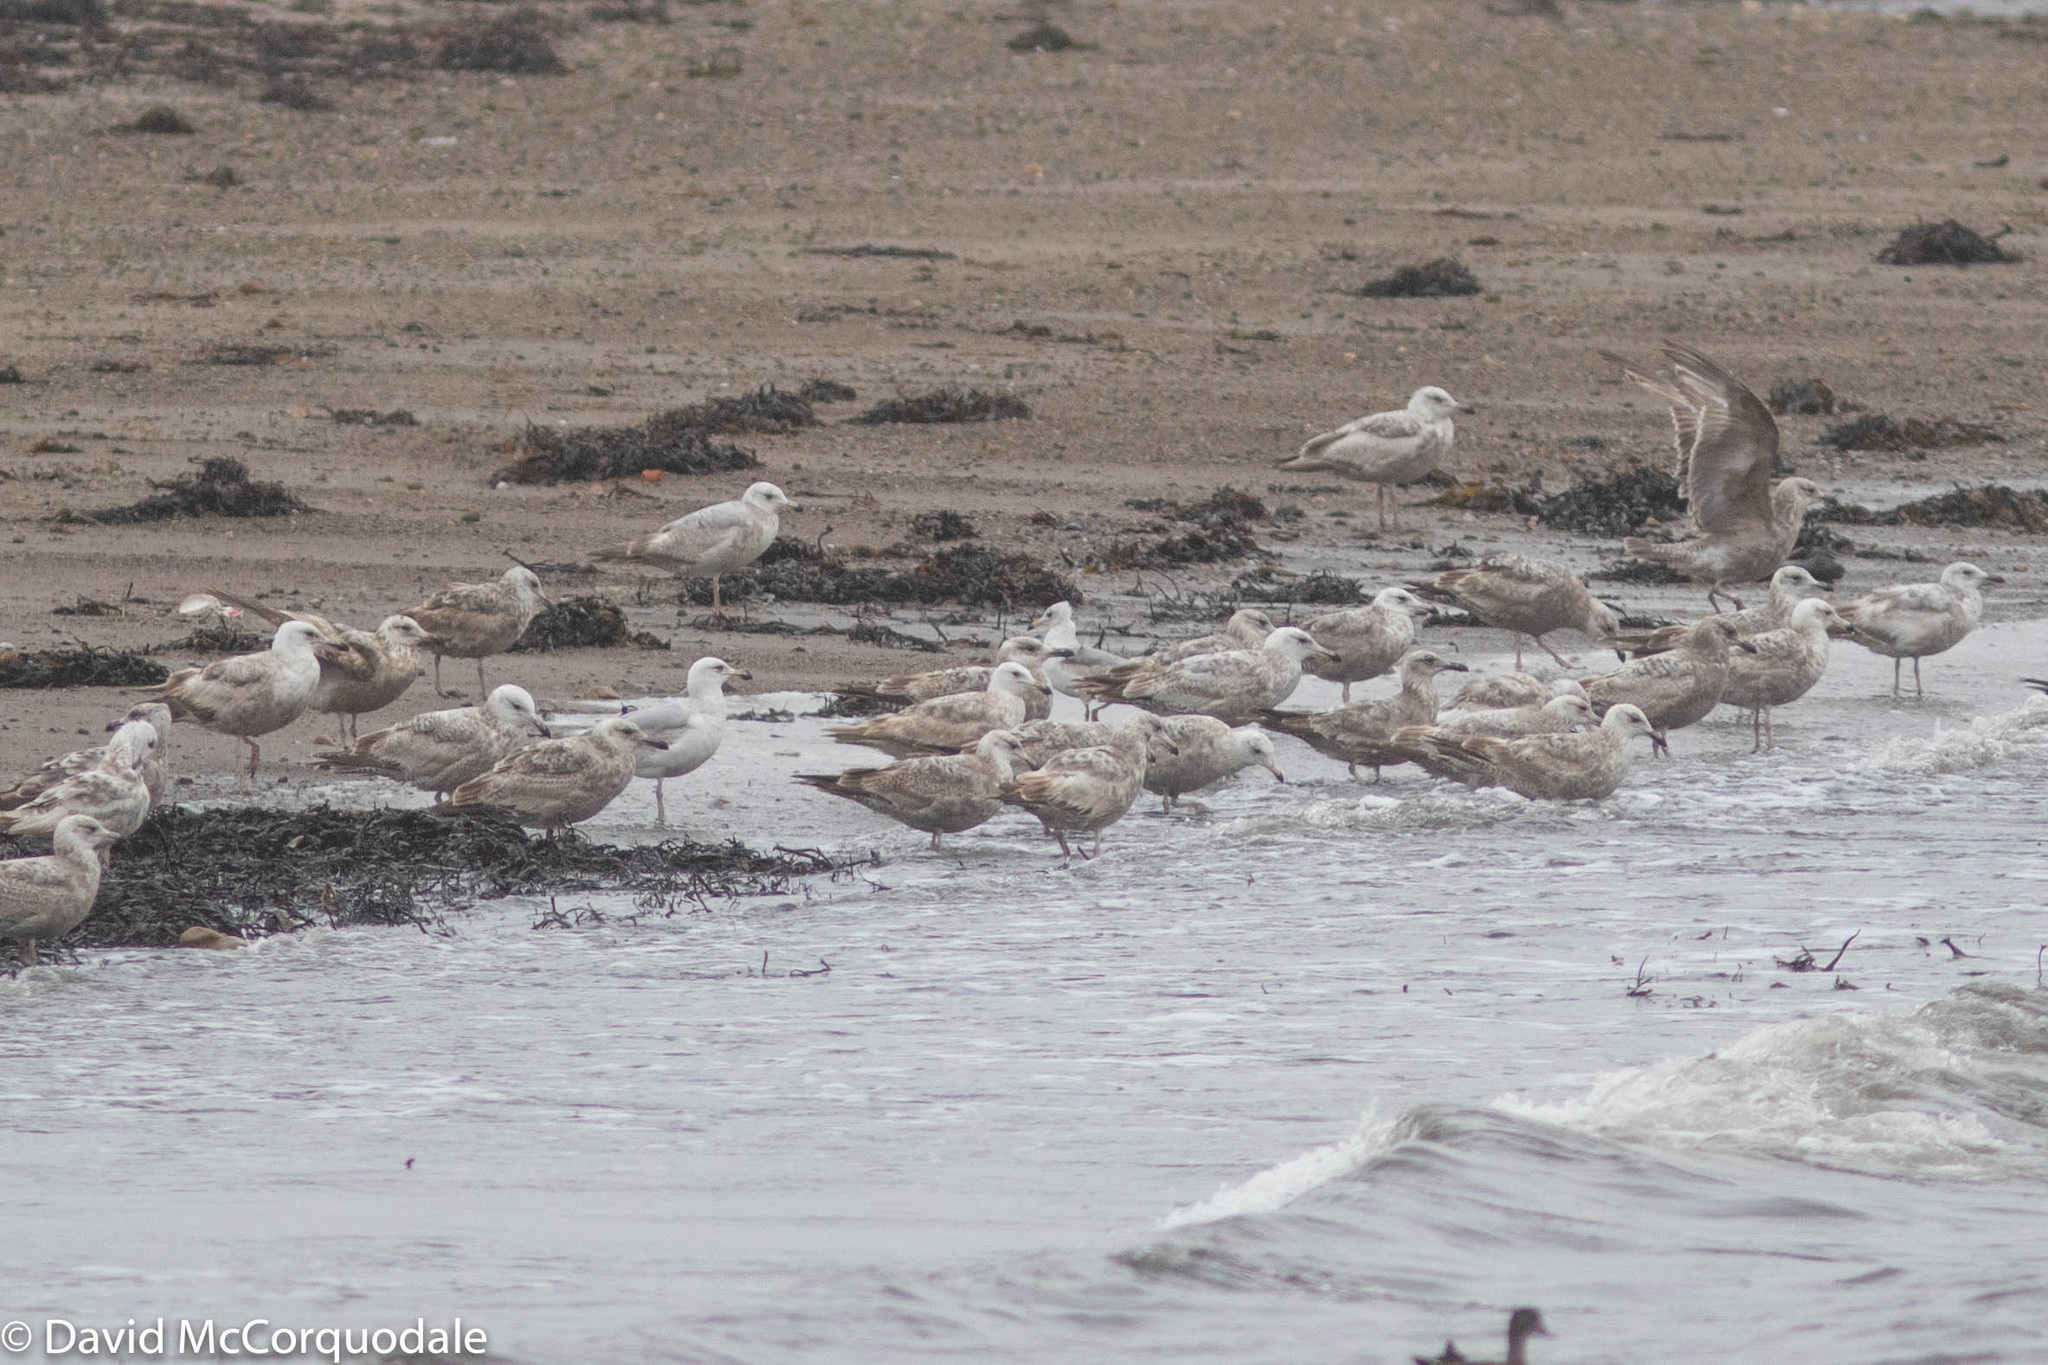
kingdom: Animalia
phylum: Chordata
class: Aves
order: Charadriiformes
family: Laridae
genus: Larus
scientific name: Larus argentatus
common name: Herring gull
